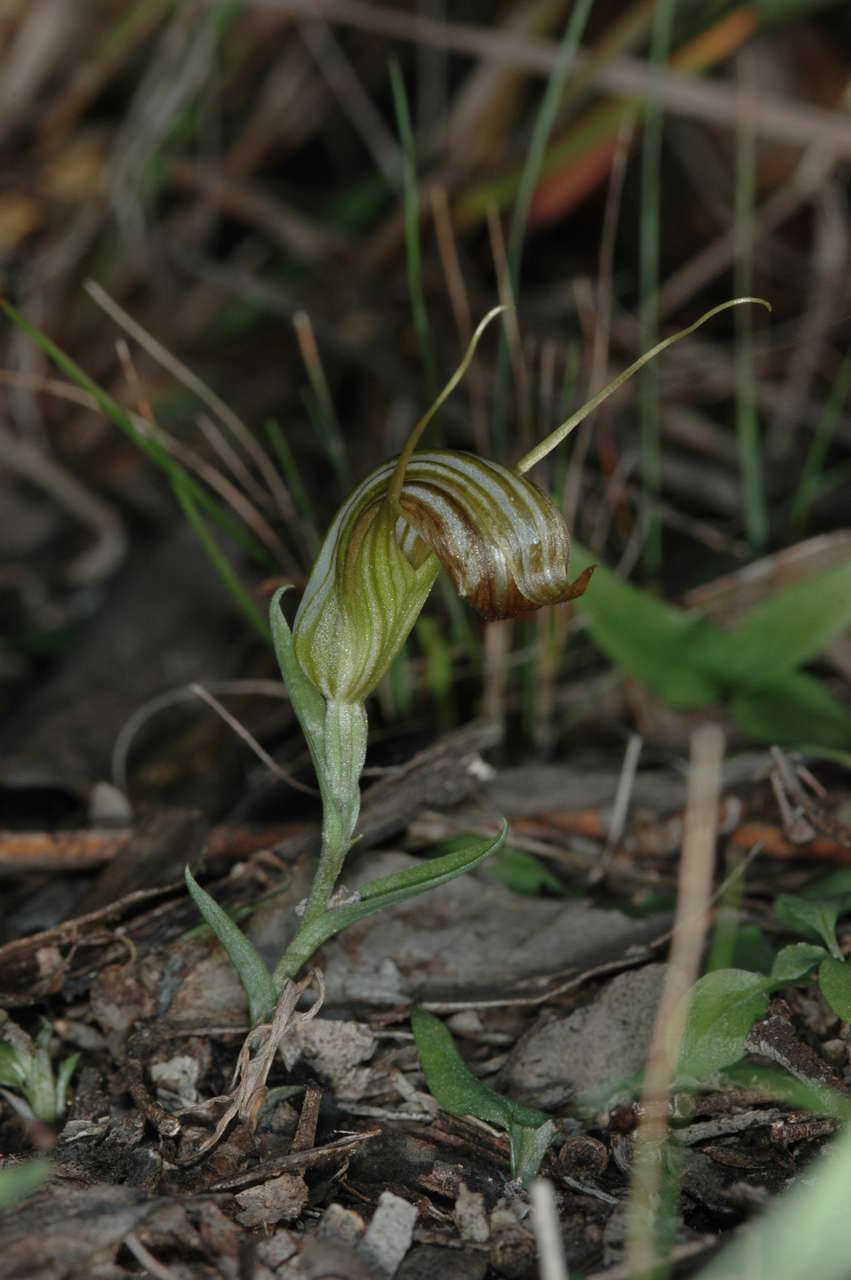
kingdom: Plantae
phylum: Tracheophyta
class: Liliopsida
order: Asparagales
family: Orchidaceae
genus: Pterostylis
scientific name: Pterostylis truncata
